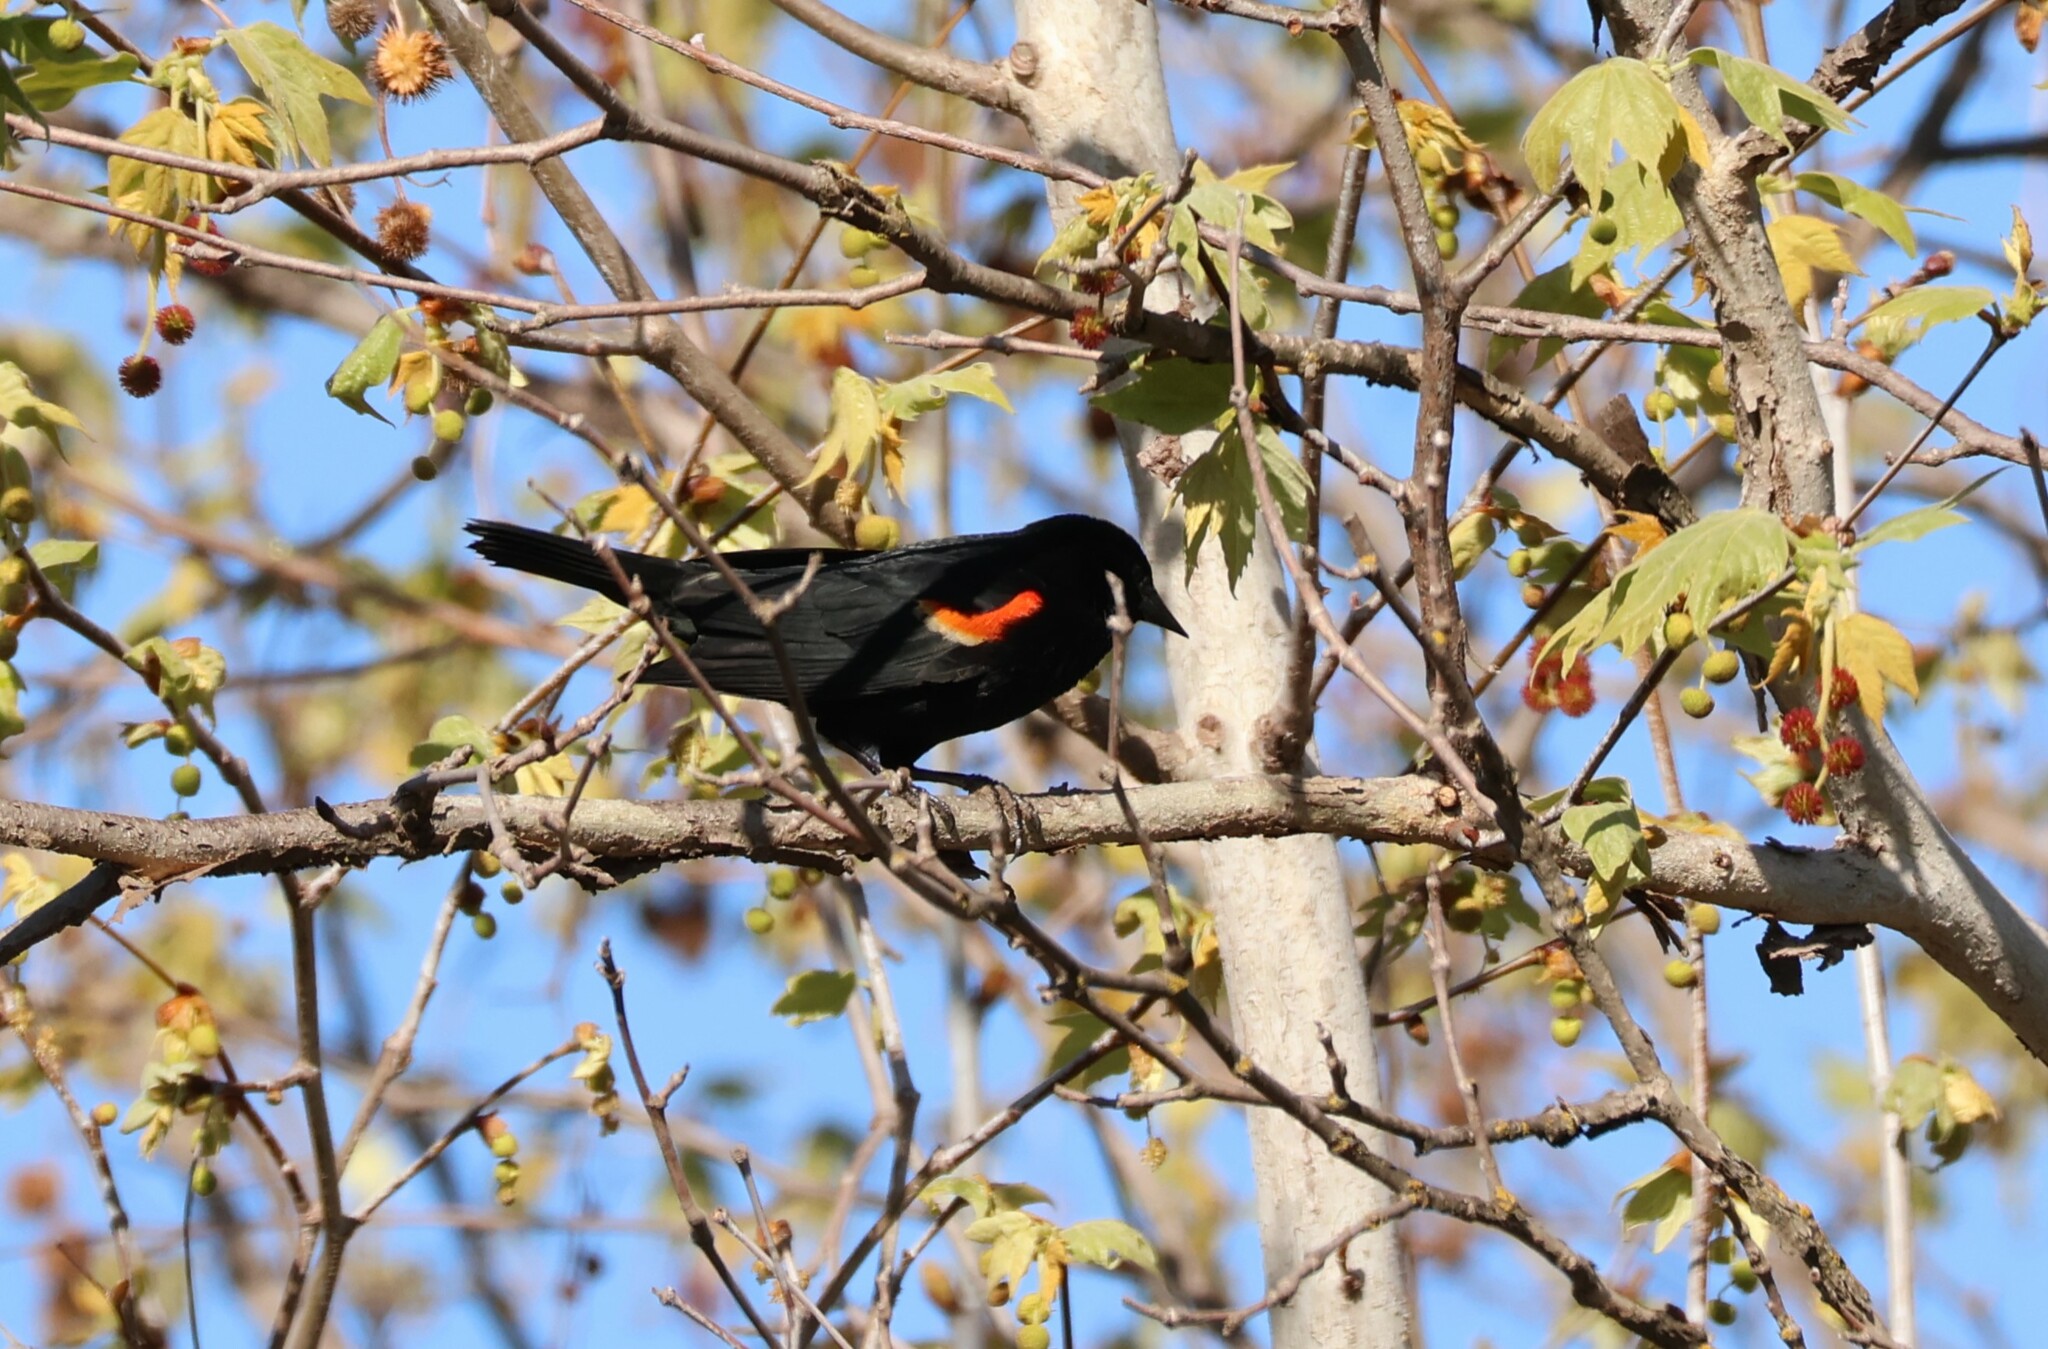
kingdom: Animalia
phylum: Chordata
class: Aves
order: Passeriformes
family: Icteridae
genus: Agelaius
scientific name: Agelaius phoeniceus
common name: Red-winged blackbird
